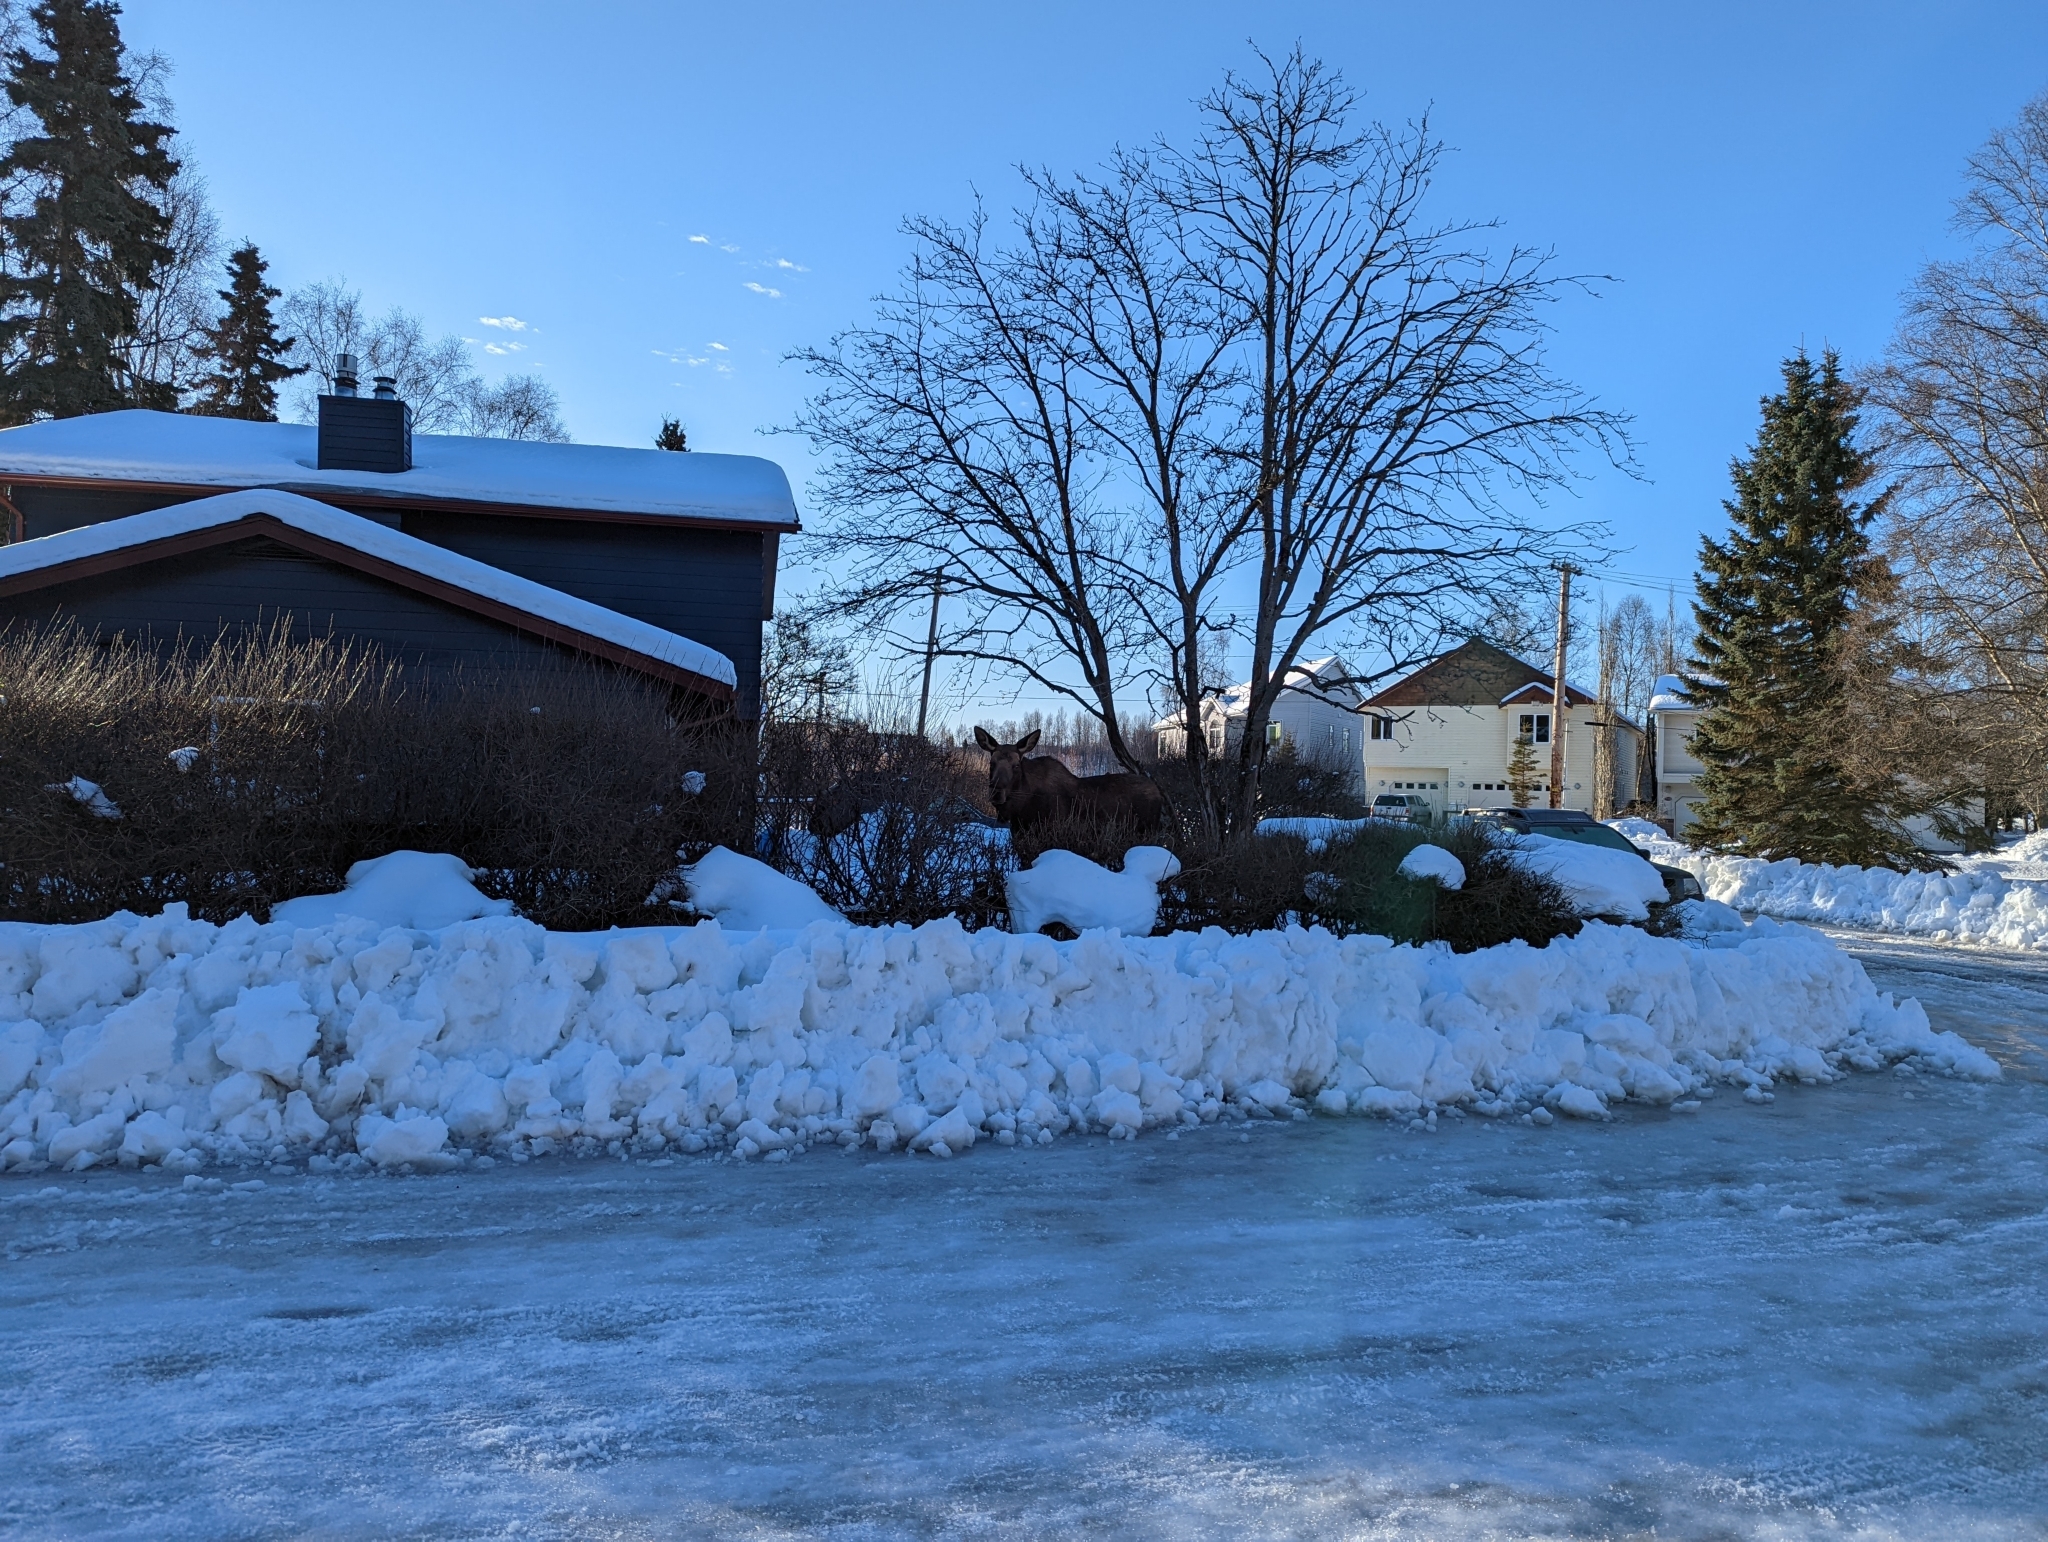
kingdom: Animalia
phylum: Chordata
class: Mammalia
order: Artiodactyla
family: Cervidae
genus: Alces
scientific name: Alces alces
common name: Moose
